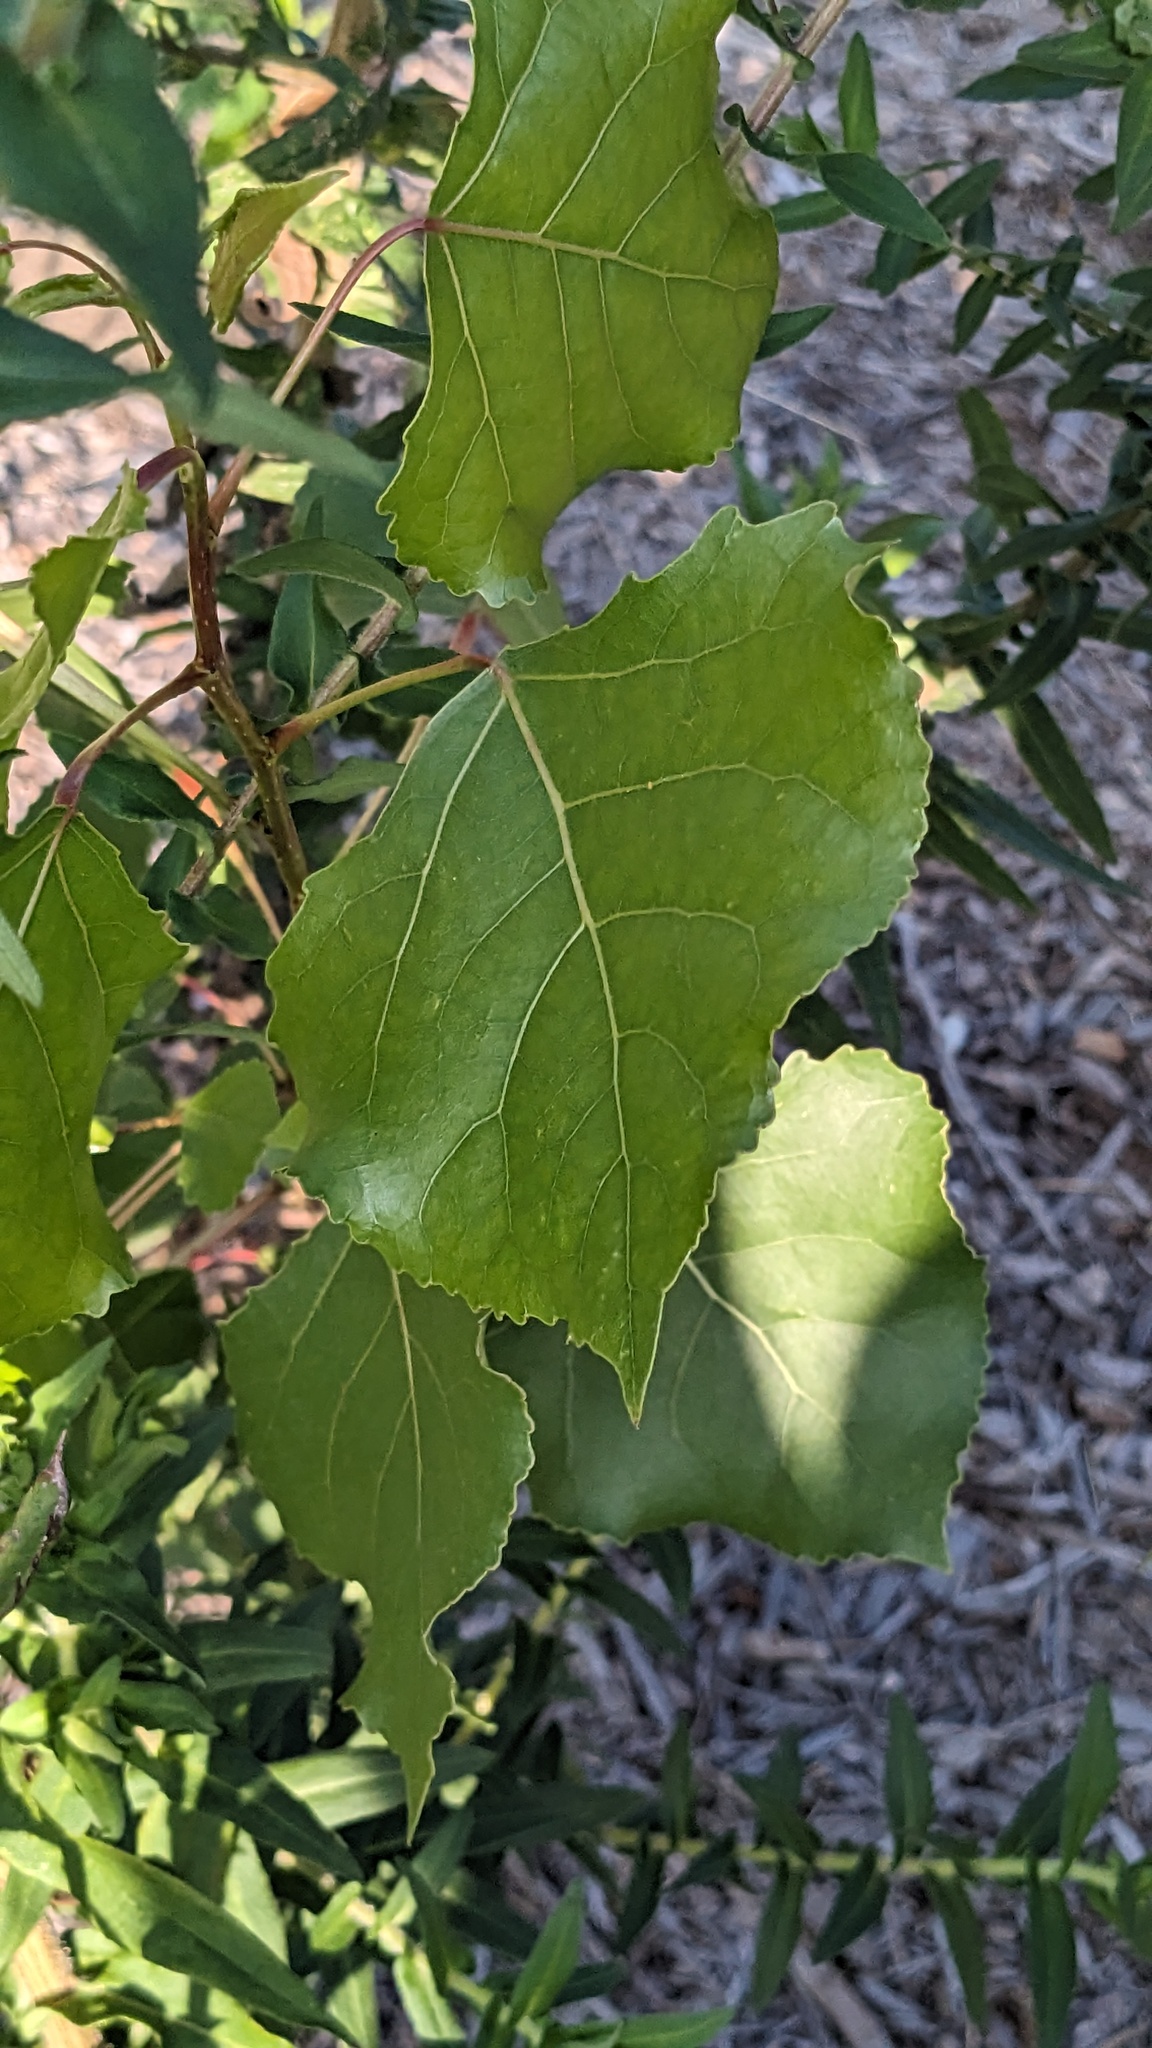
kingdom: Plantae
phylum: Tracheophyta
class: Magnoliopsida
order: Malpighiales
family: Salicaceae
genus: Populus
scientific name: Populus deltoides
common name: Eastern cottonwood
